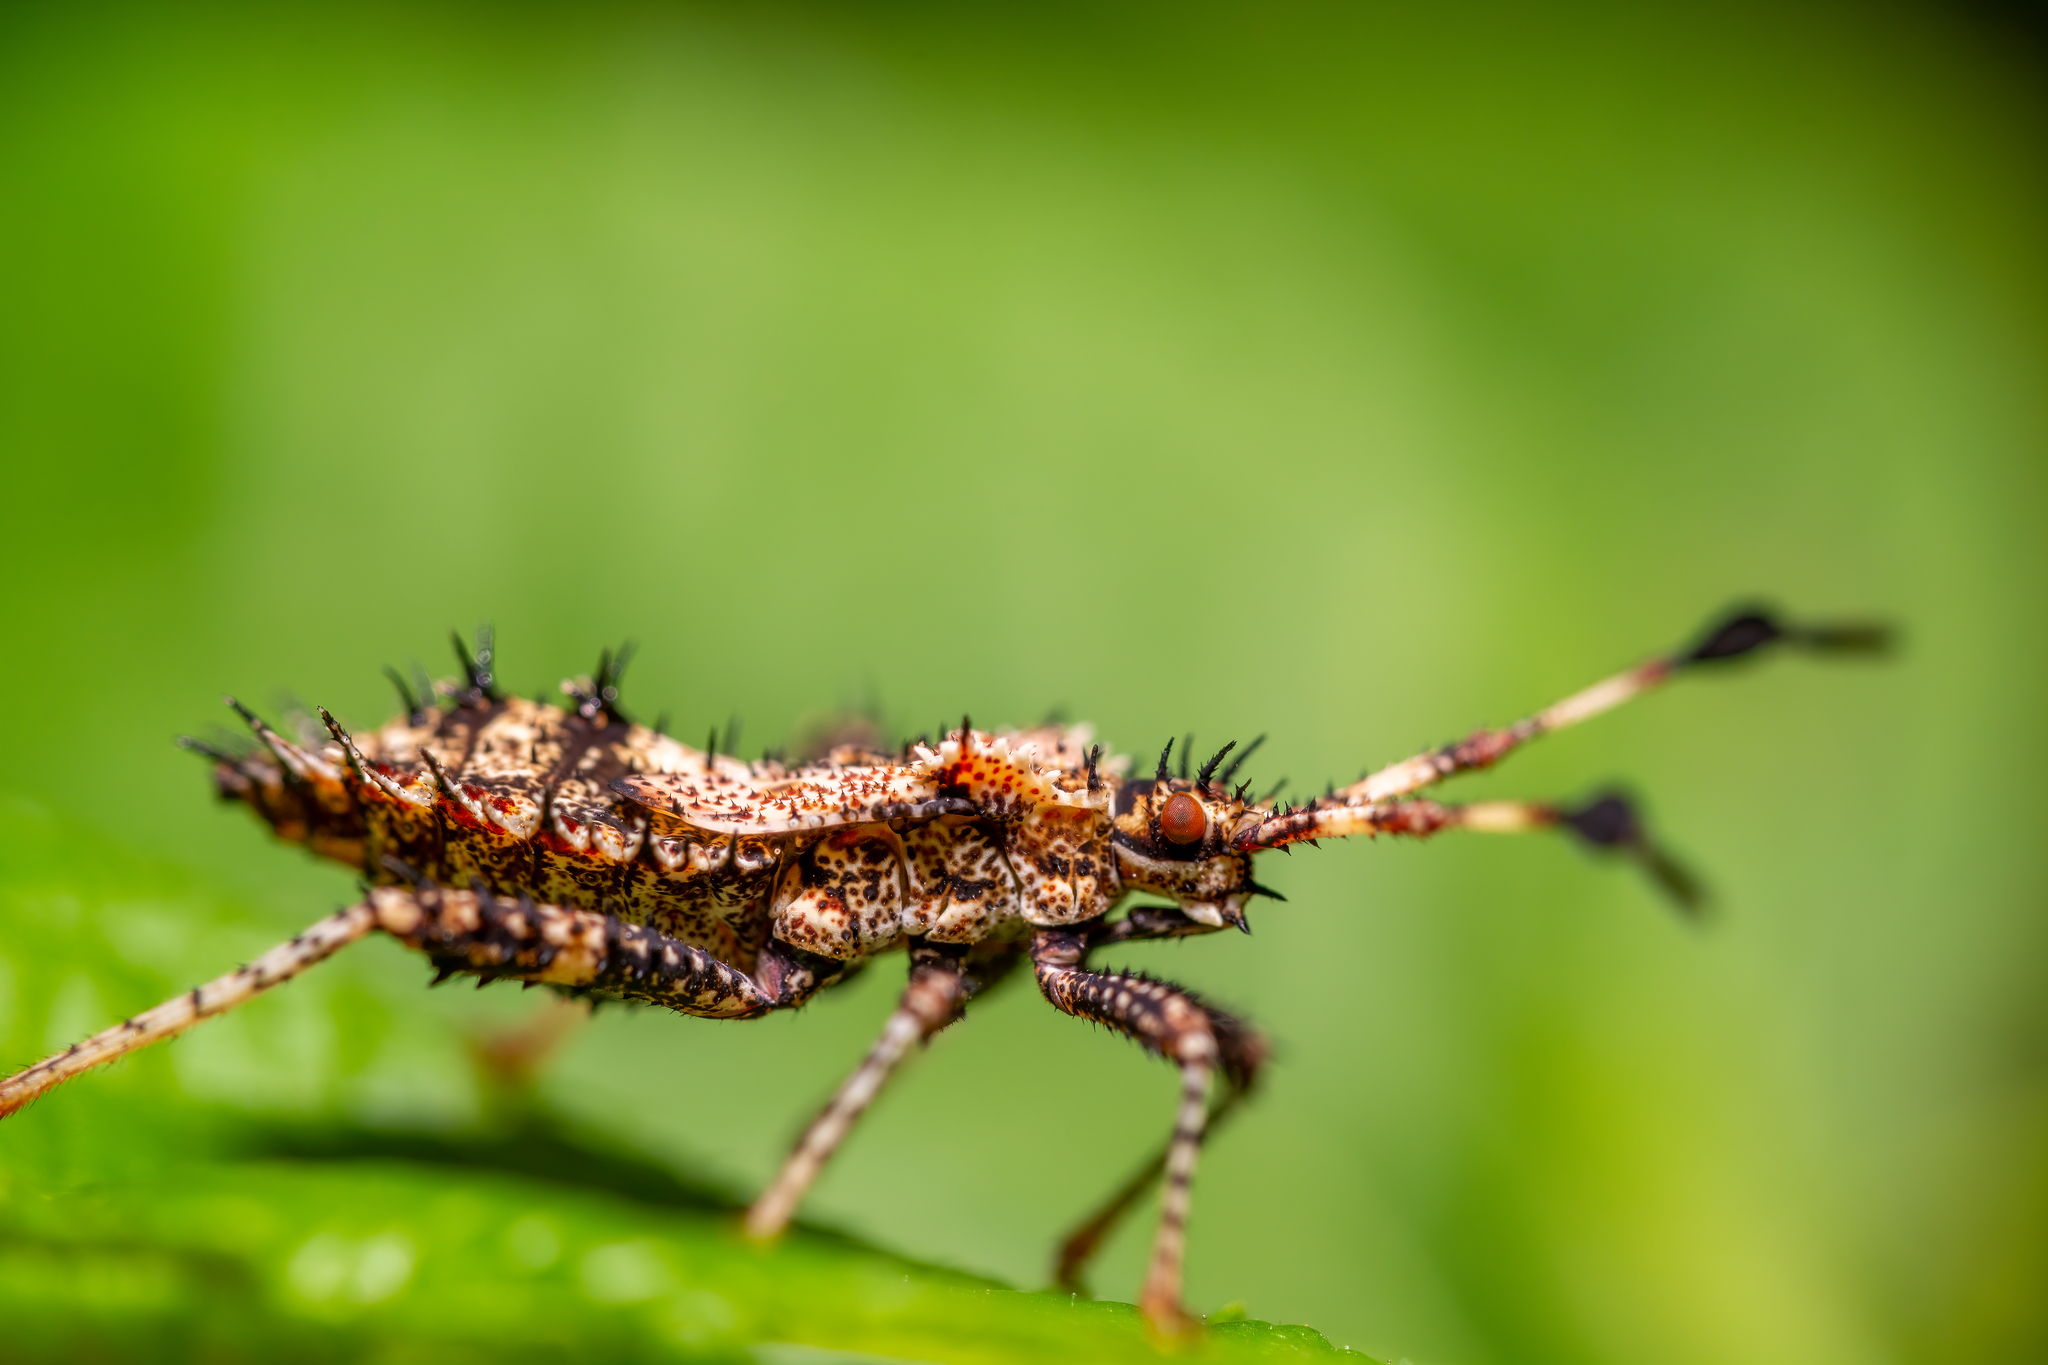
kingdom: Animalia
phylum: Arthropoda
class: Insecta
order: Hemiptera
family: Coreidae
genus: Euthochtha
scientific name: Euthochtha galeator
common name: Helmeted squash bug
